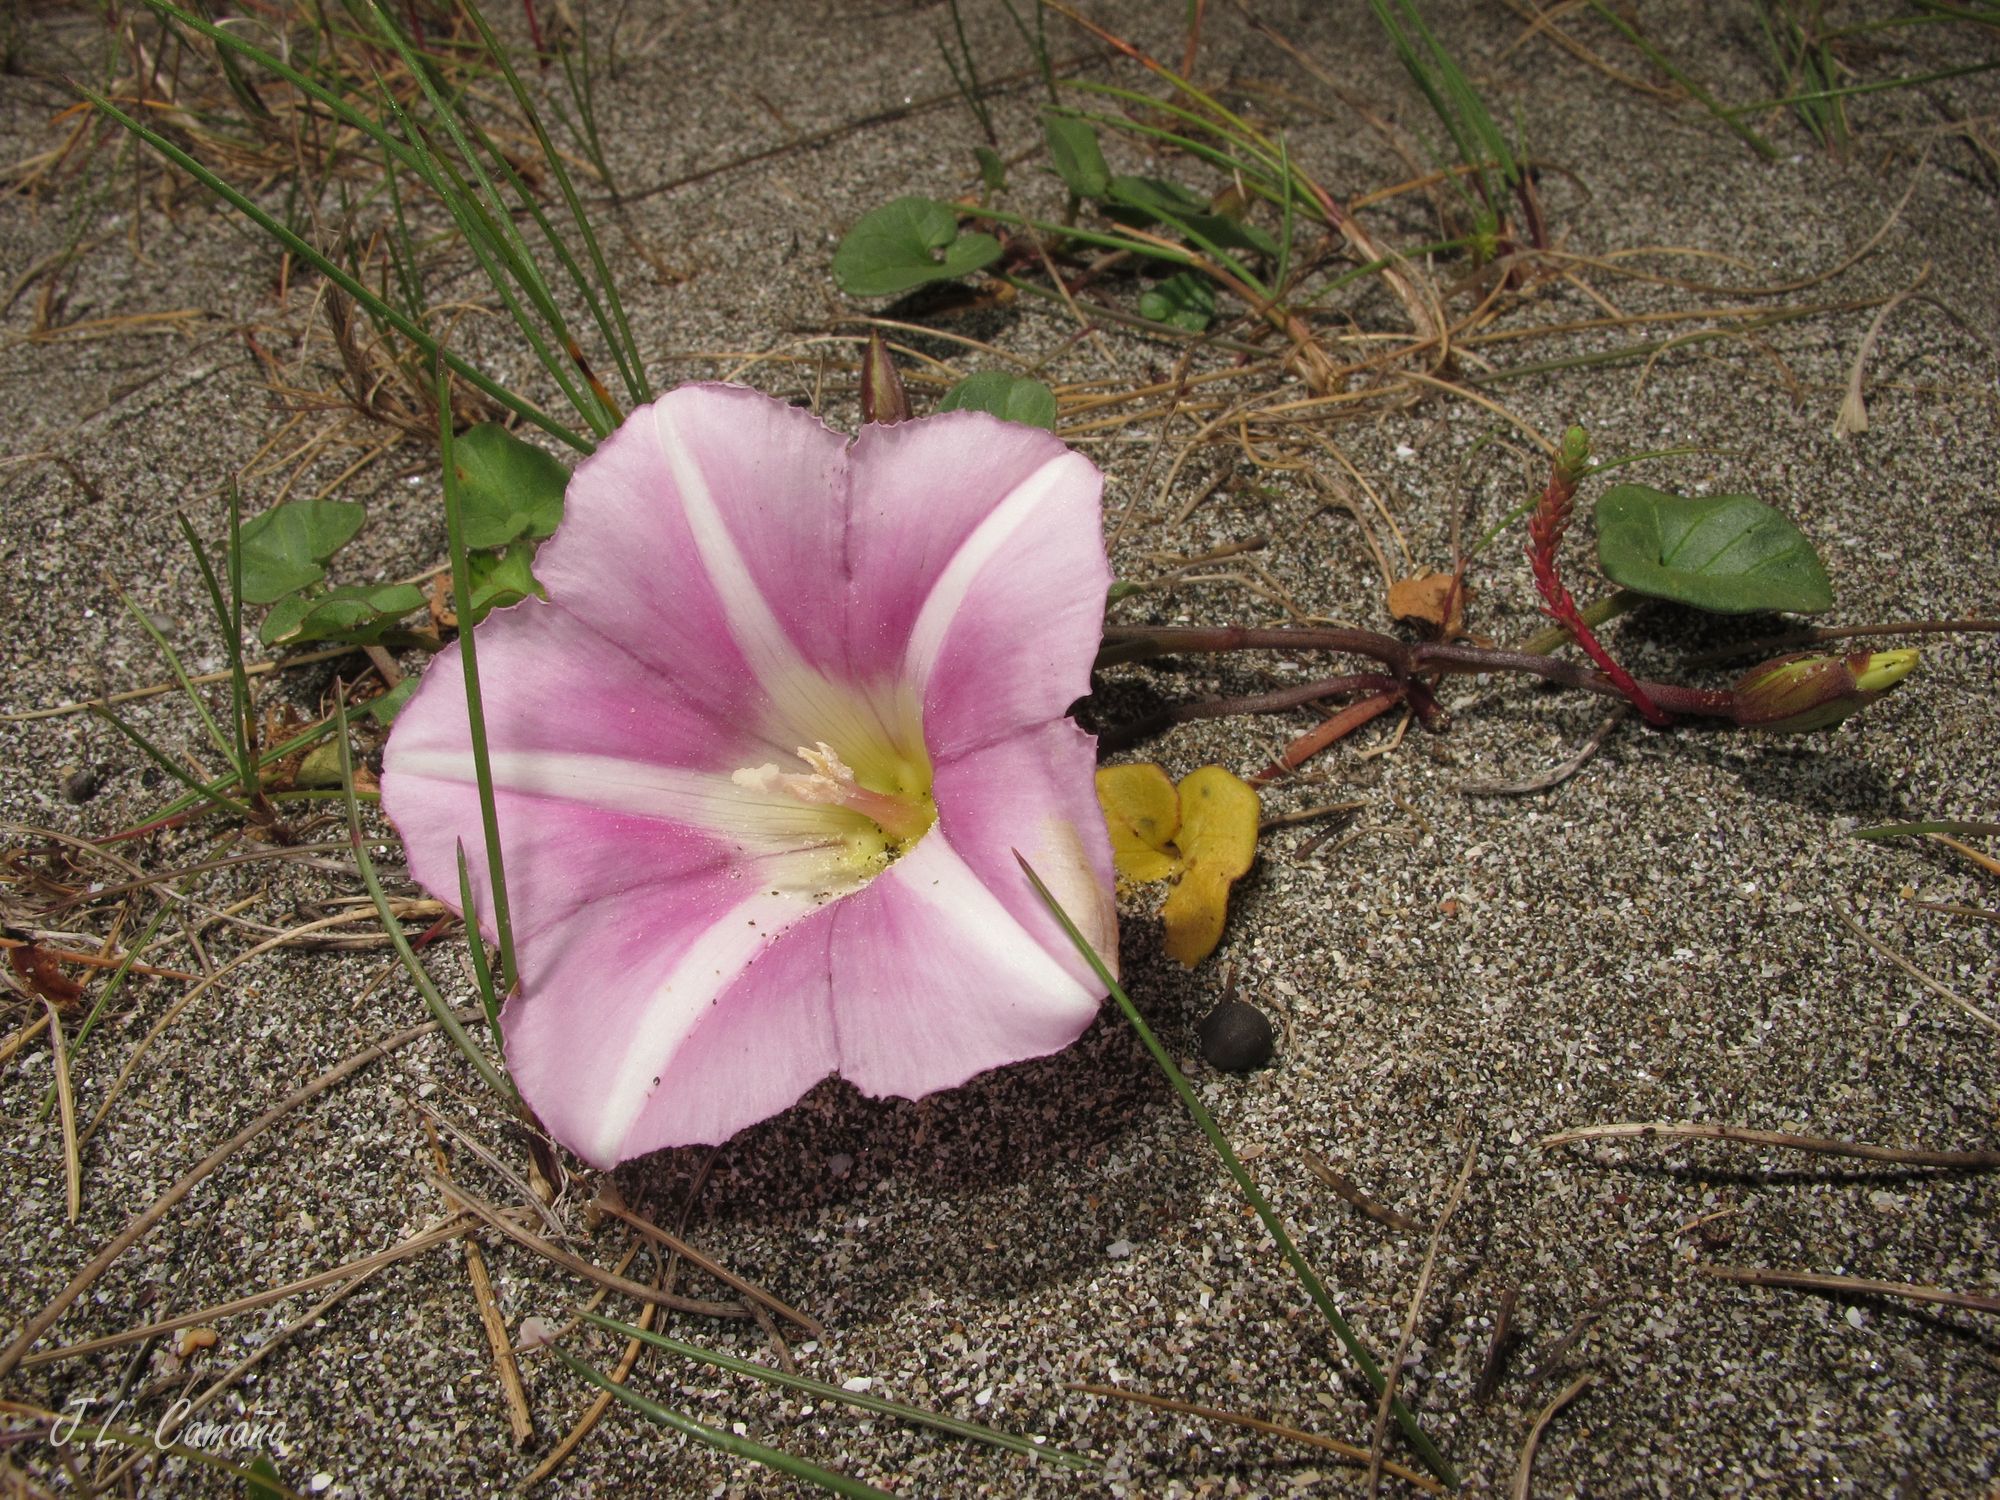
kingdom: Plantae
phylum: Tracheophyta
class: Magnoliopsida
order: Solanales
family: Convolvulaceae
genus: Calystegia
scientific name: Calystegia soldanella
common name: Sea bindweed
